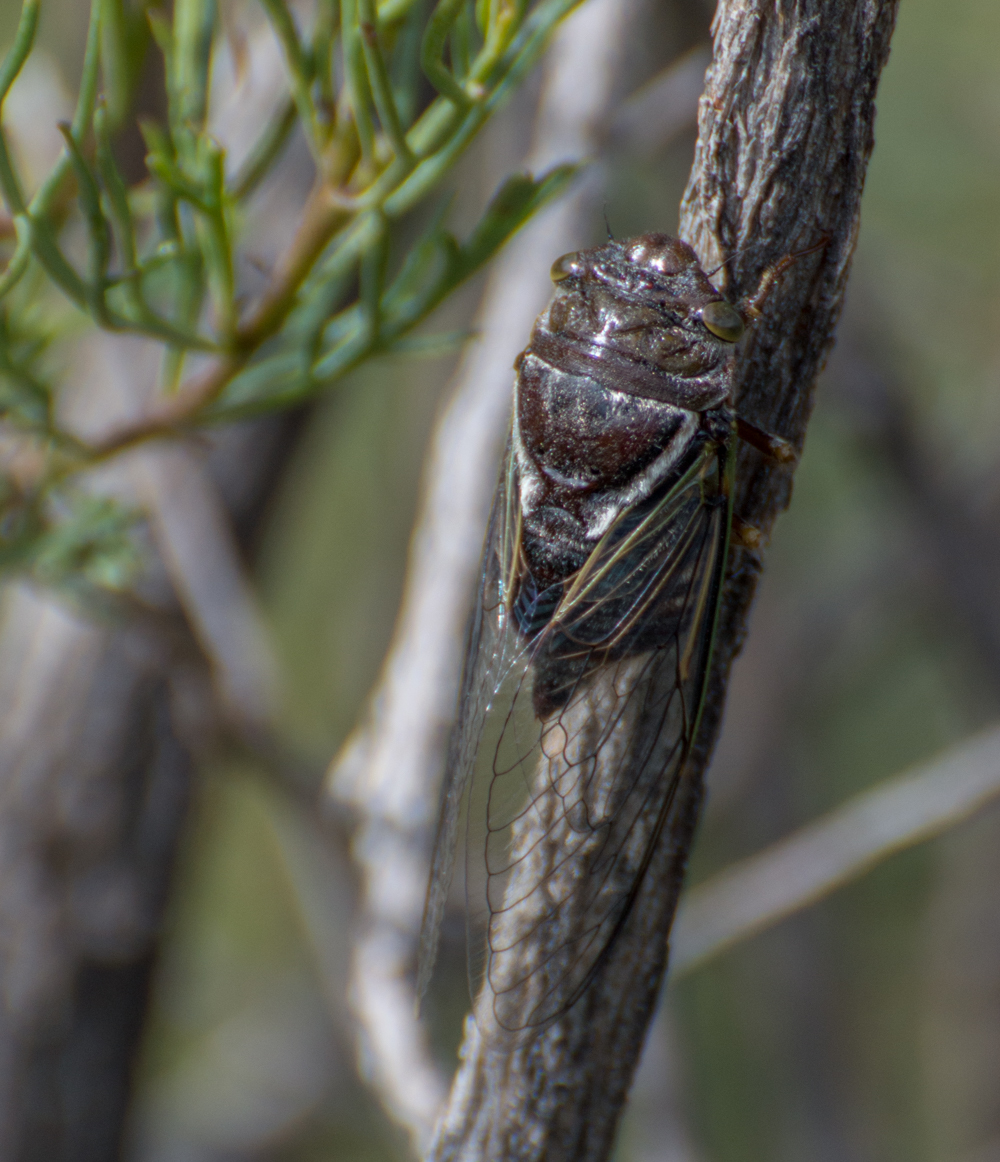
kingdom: Animalia
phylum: Arthropoda
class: Insecta
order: Hemiptera
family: Cicadidae
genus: Fidicinoides
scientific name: Fidicinoides ferruginosa
